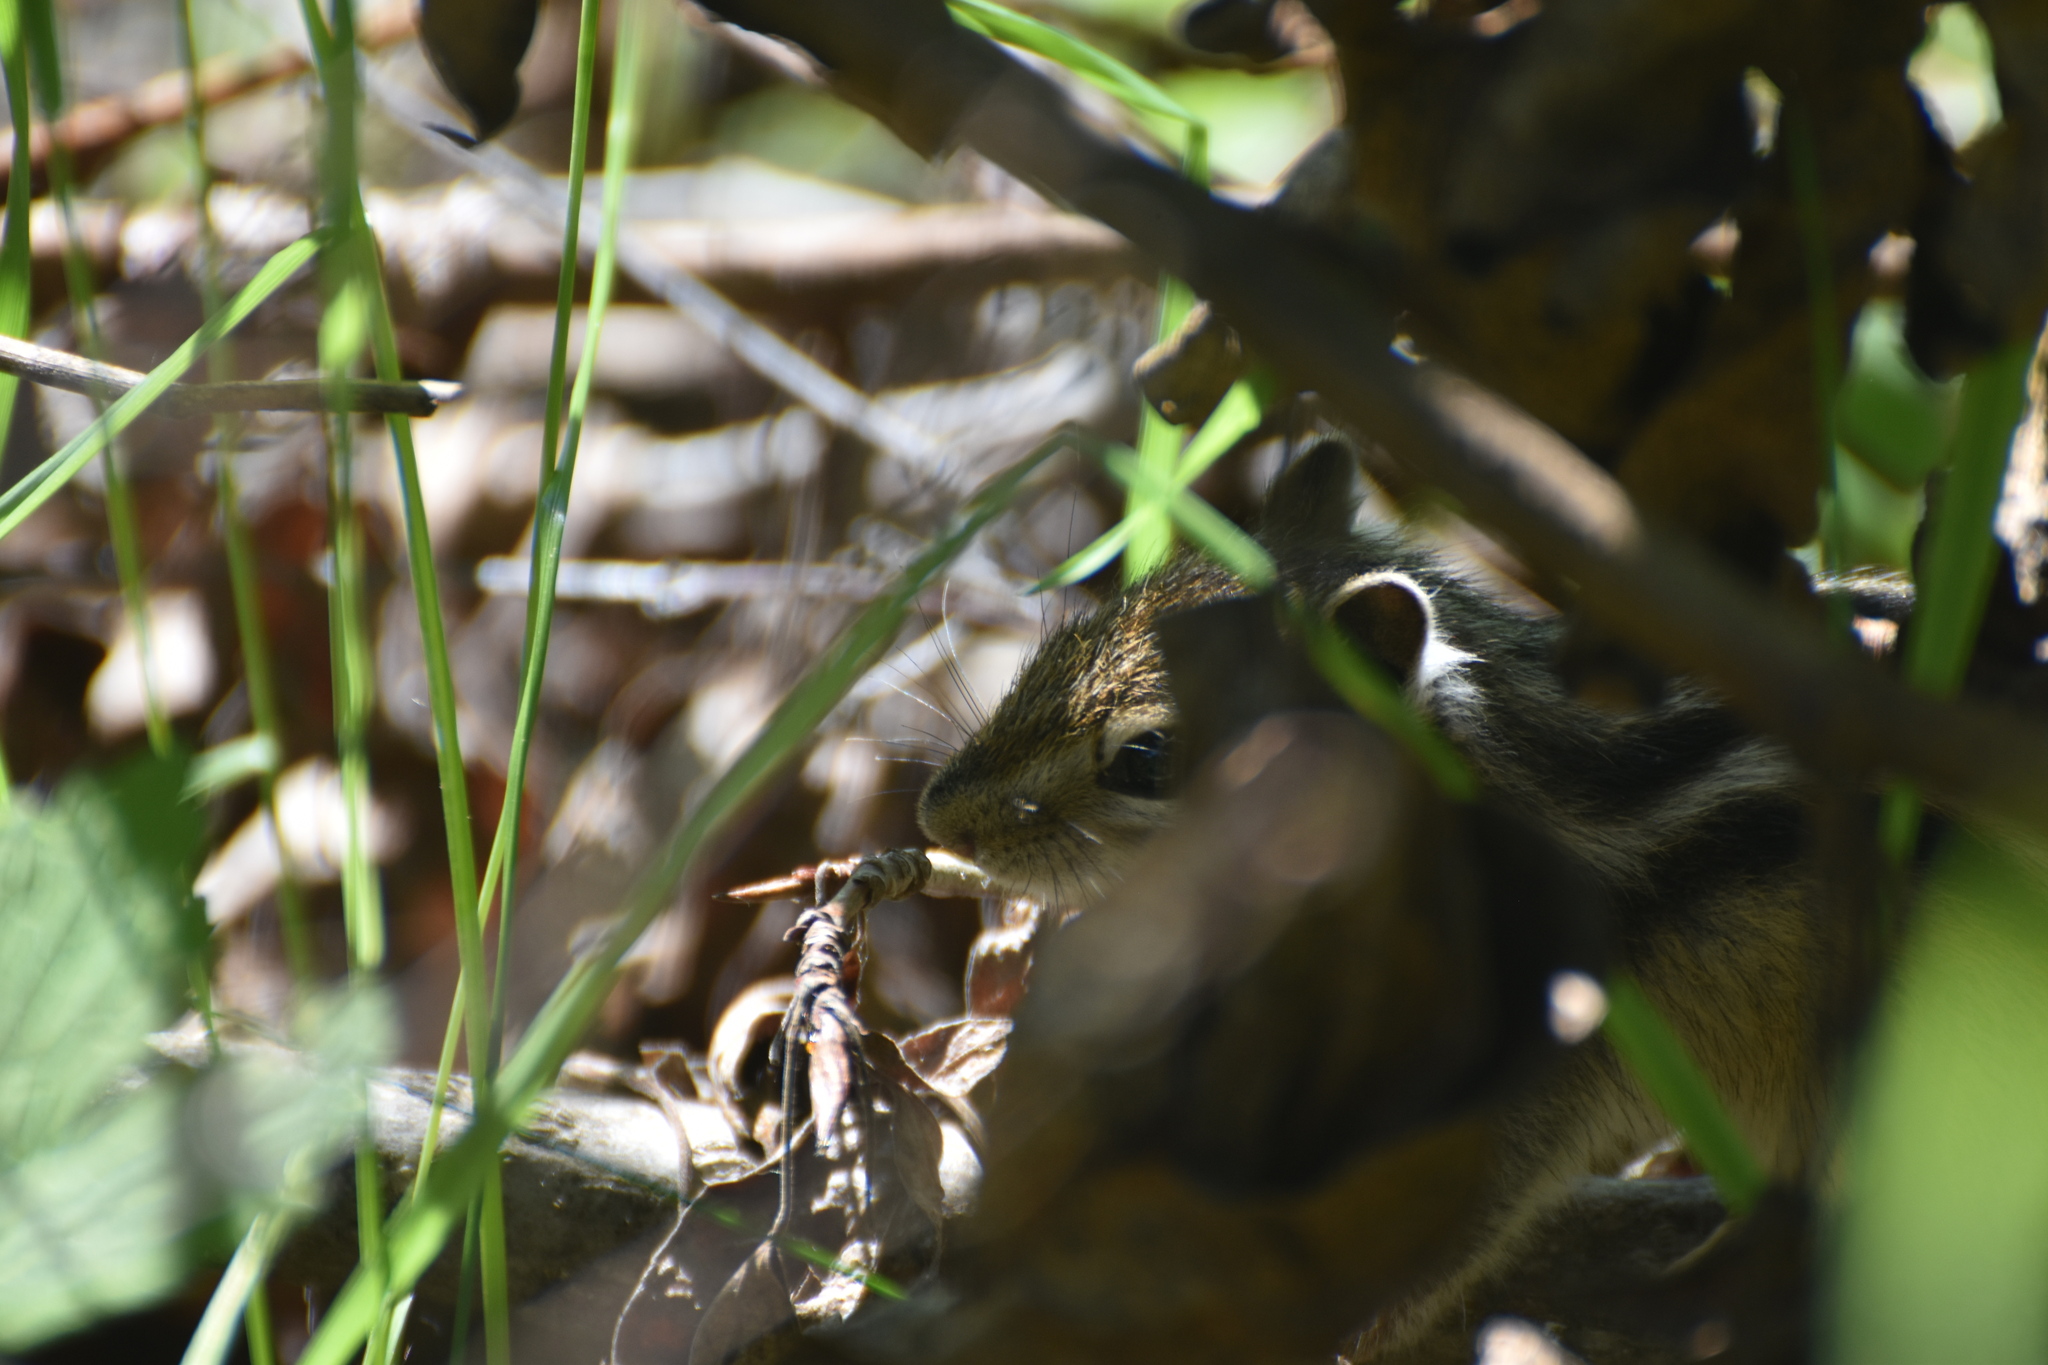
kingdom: Animalia
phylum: Chordata
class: Mammalia
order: Rodentia
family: Sciuridae
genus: Tamias
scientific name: Tamias sibiricus
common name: Siberian chipmunk
